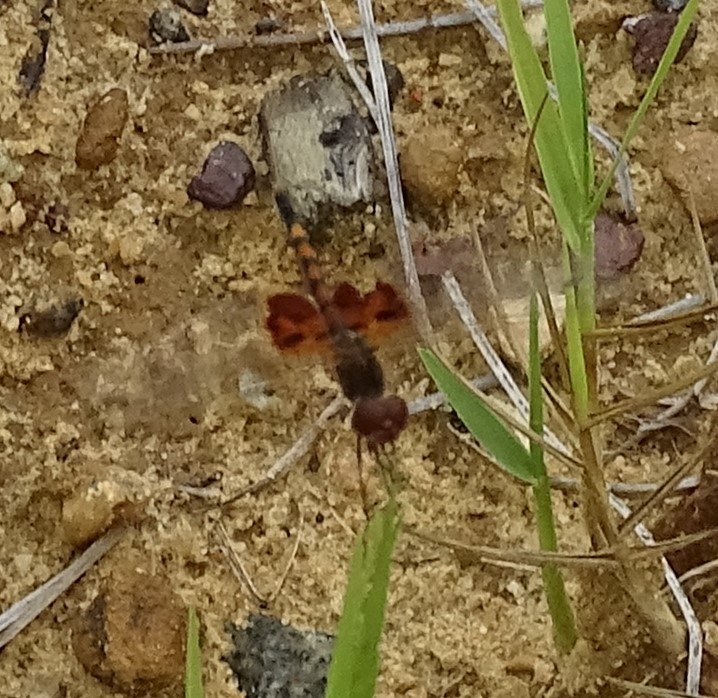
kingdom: Animalia
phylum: Arthropoda
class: Insecta
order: Odonata
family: Libellulidae
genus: Celithemis
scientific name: Celithemis amanda
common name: Amanda's pennant
